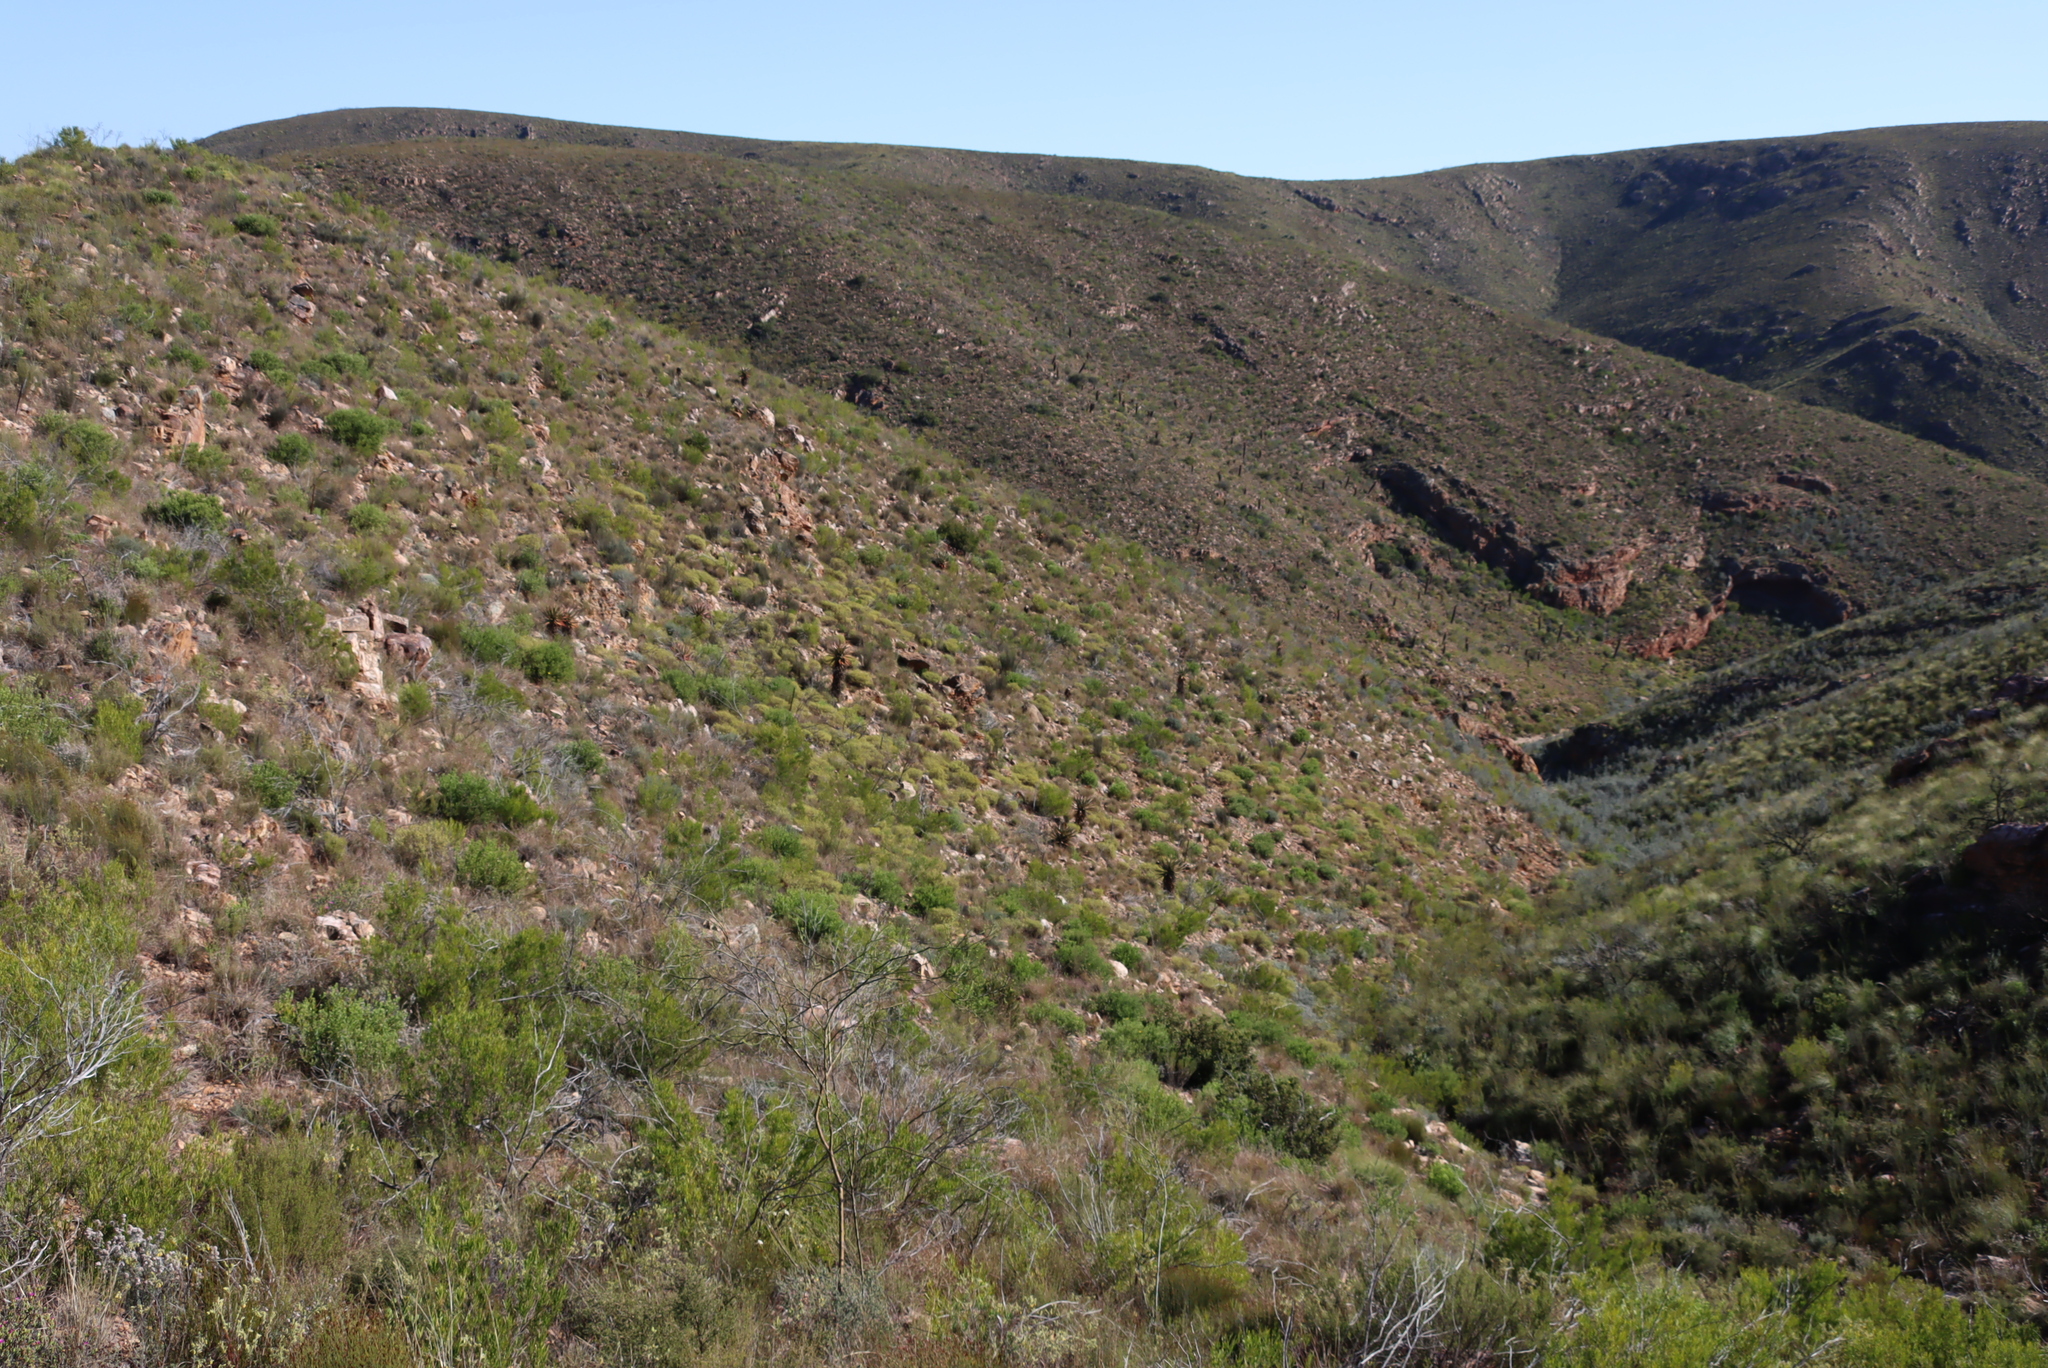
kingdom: Plantae
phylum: Tracheophyta
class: Liliopsida
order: Asparagales
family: Asphodelaceae
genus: Aloe
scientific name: Aloe ferox
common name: Bitter aloe
